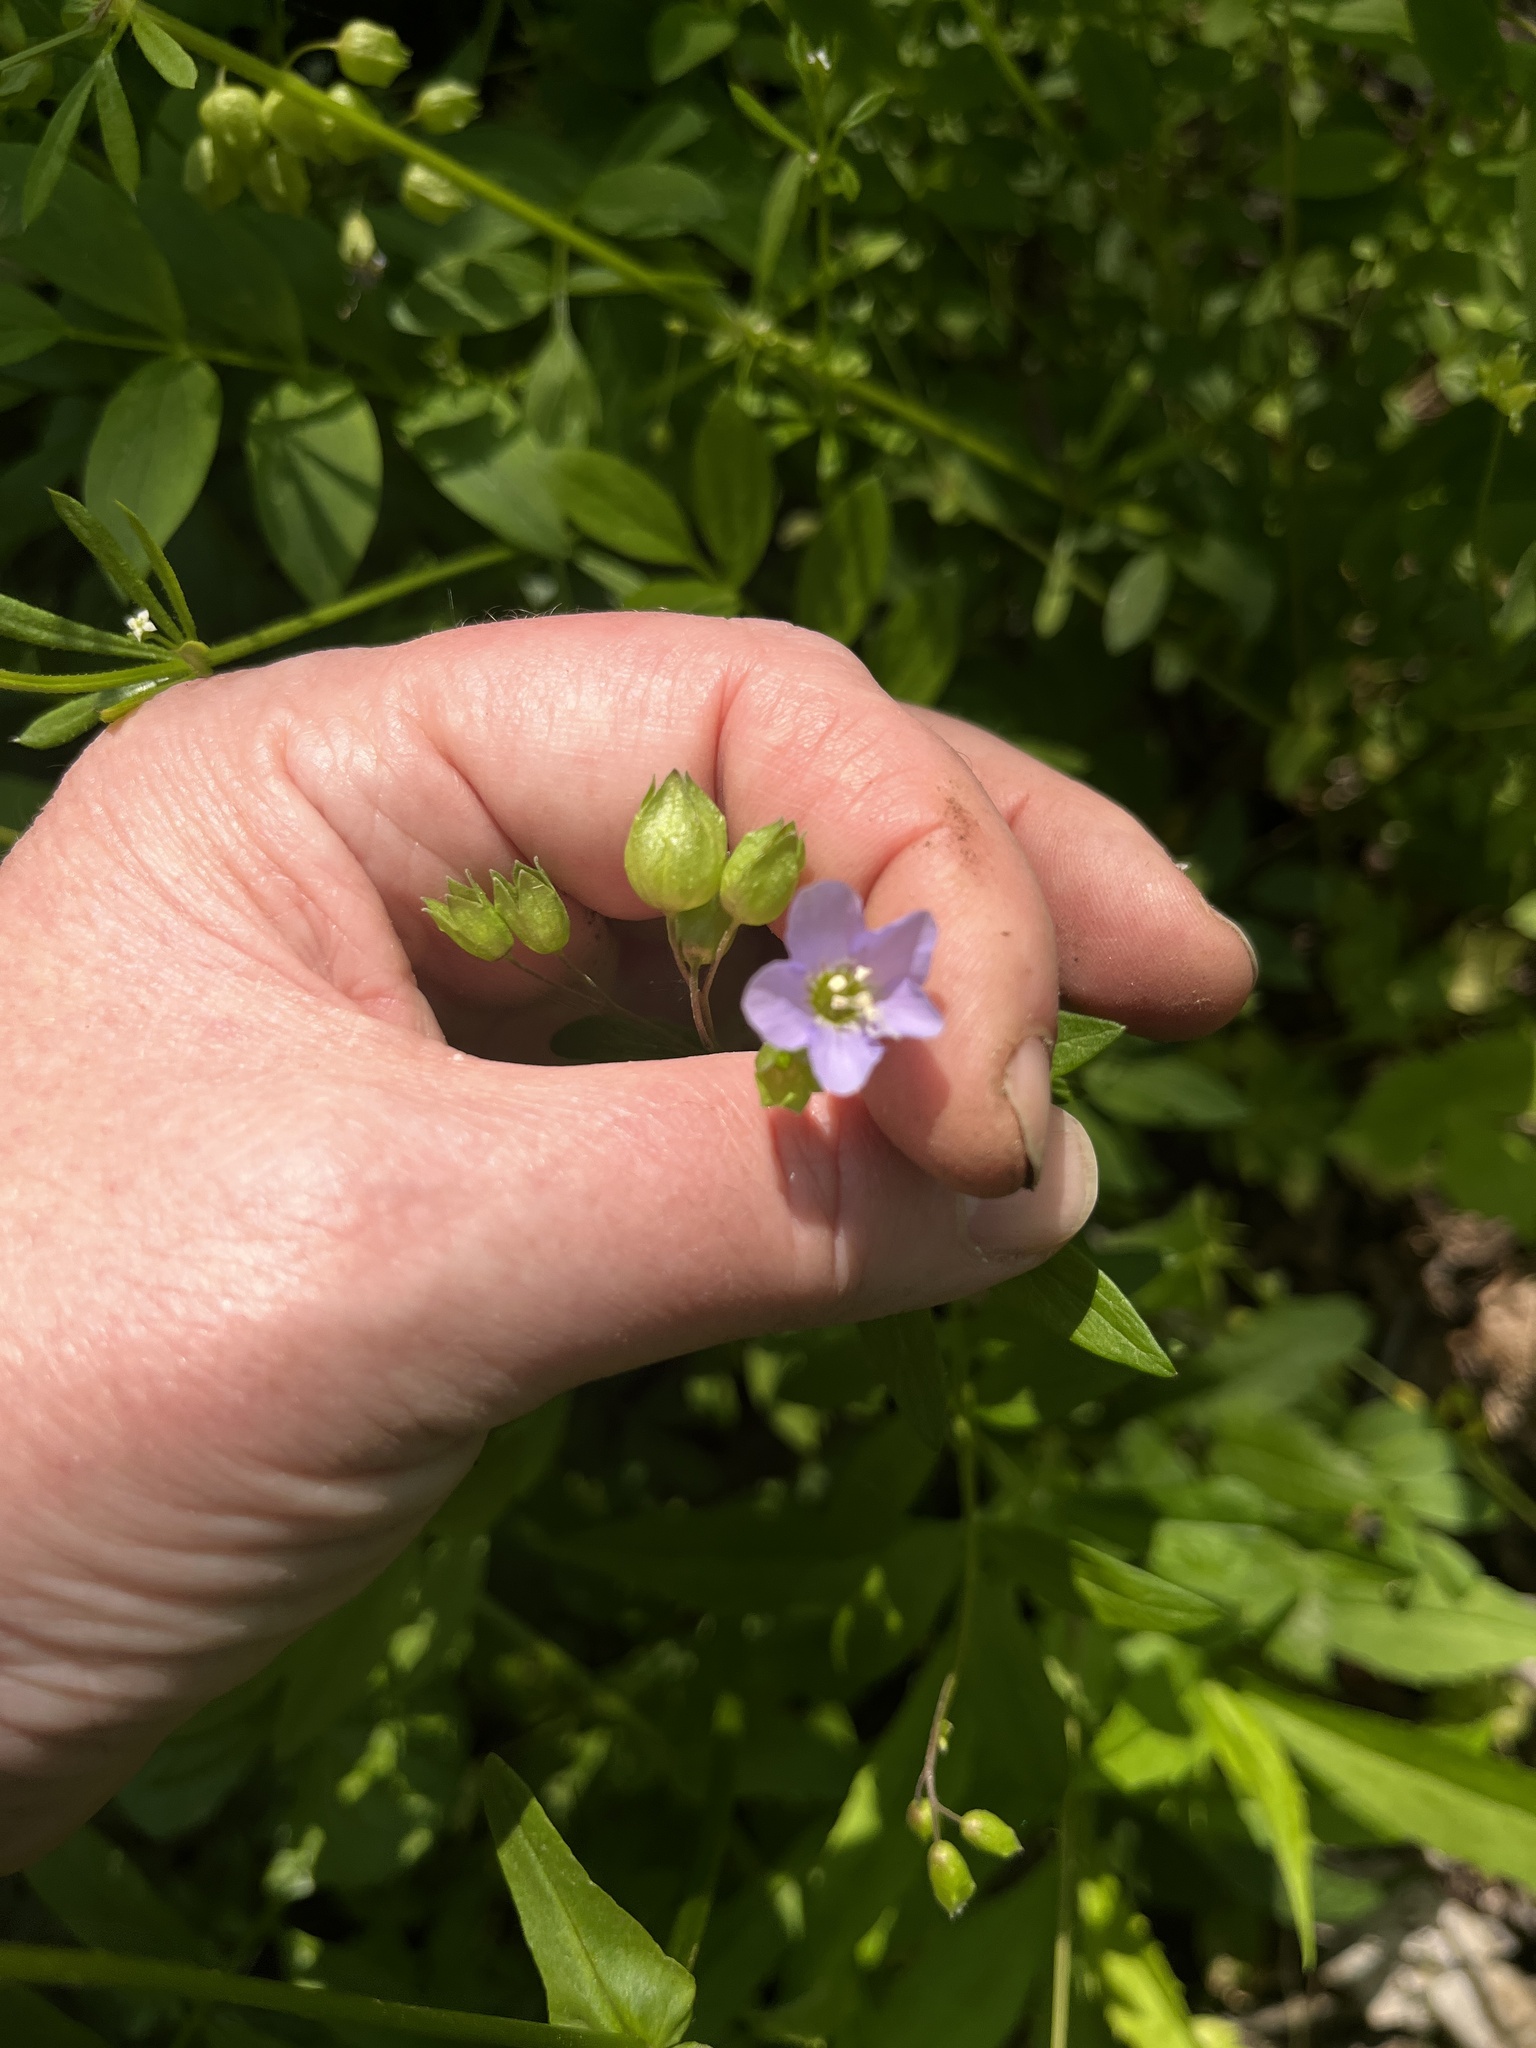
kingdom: Plantae
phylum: Tracheophyta
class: Magnoliopsida
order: Ericales
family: Polemoniaceae
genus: Polemonium
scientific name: Polemonium reptans
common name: Creeping jacob's-ladder
